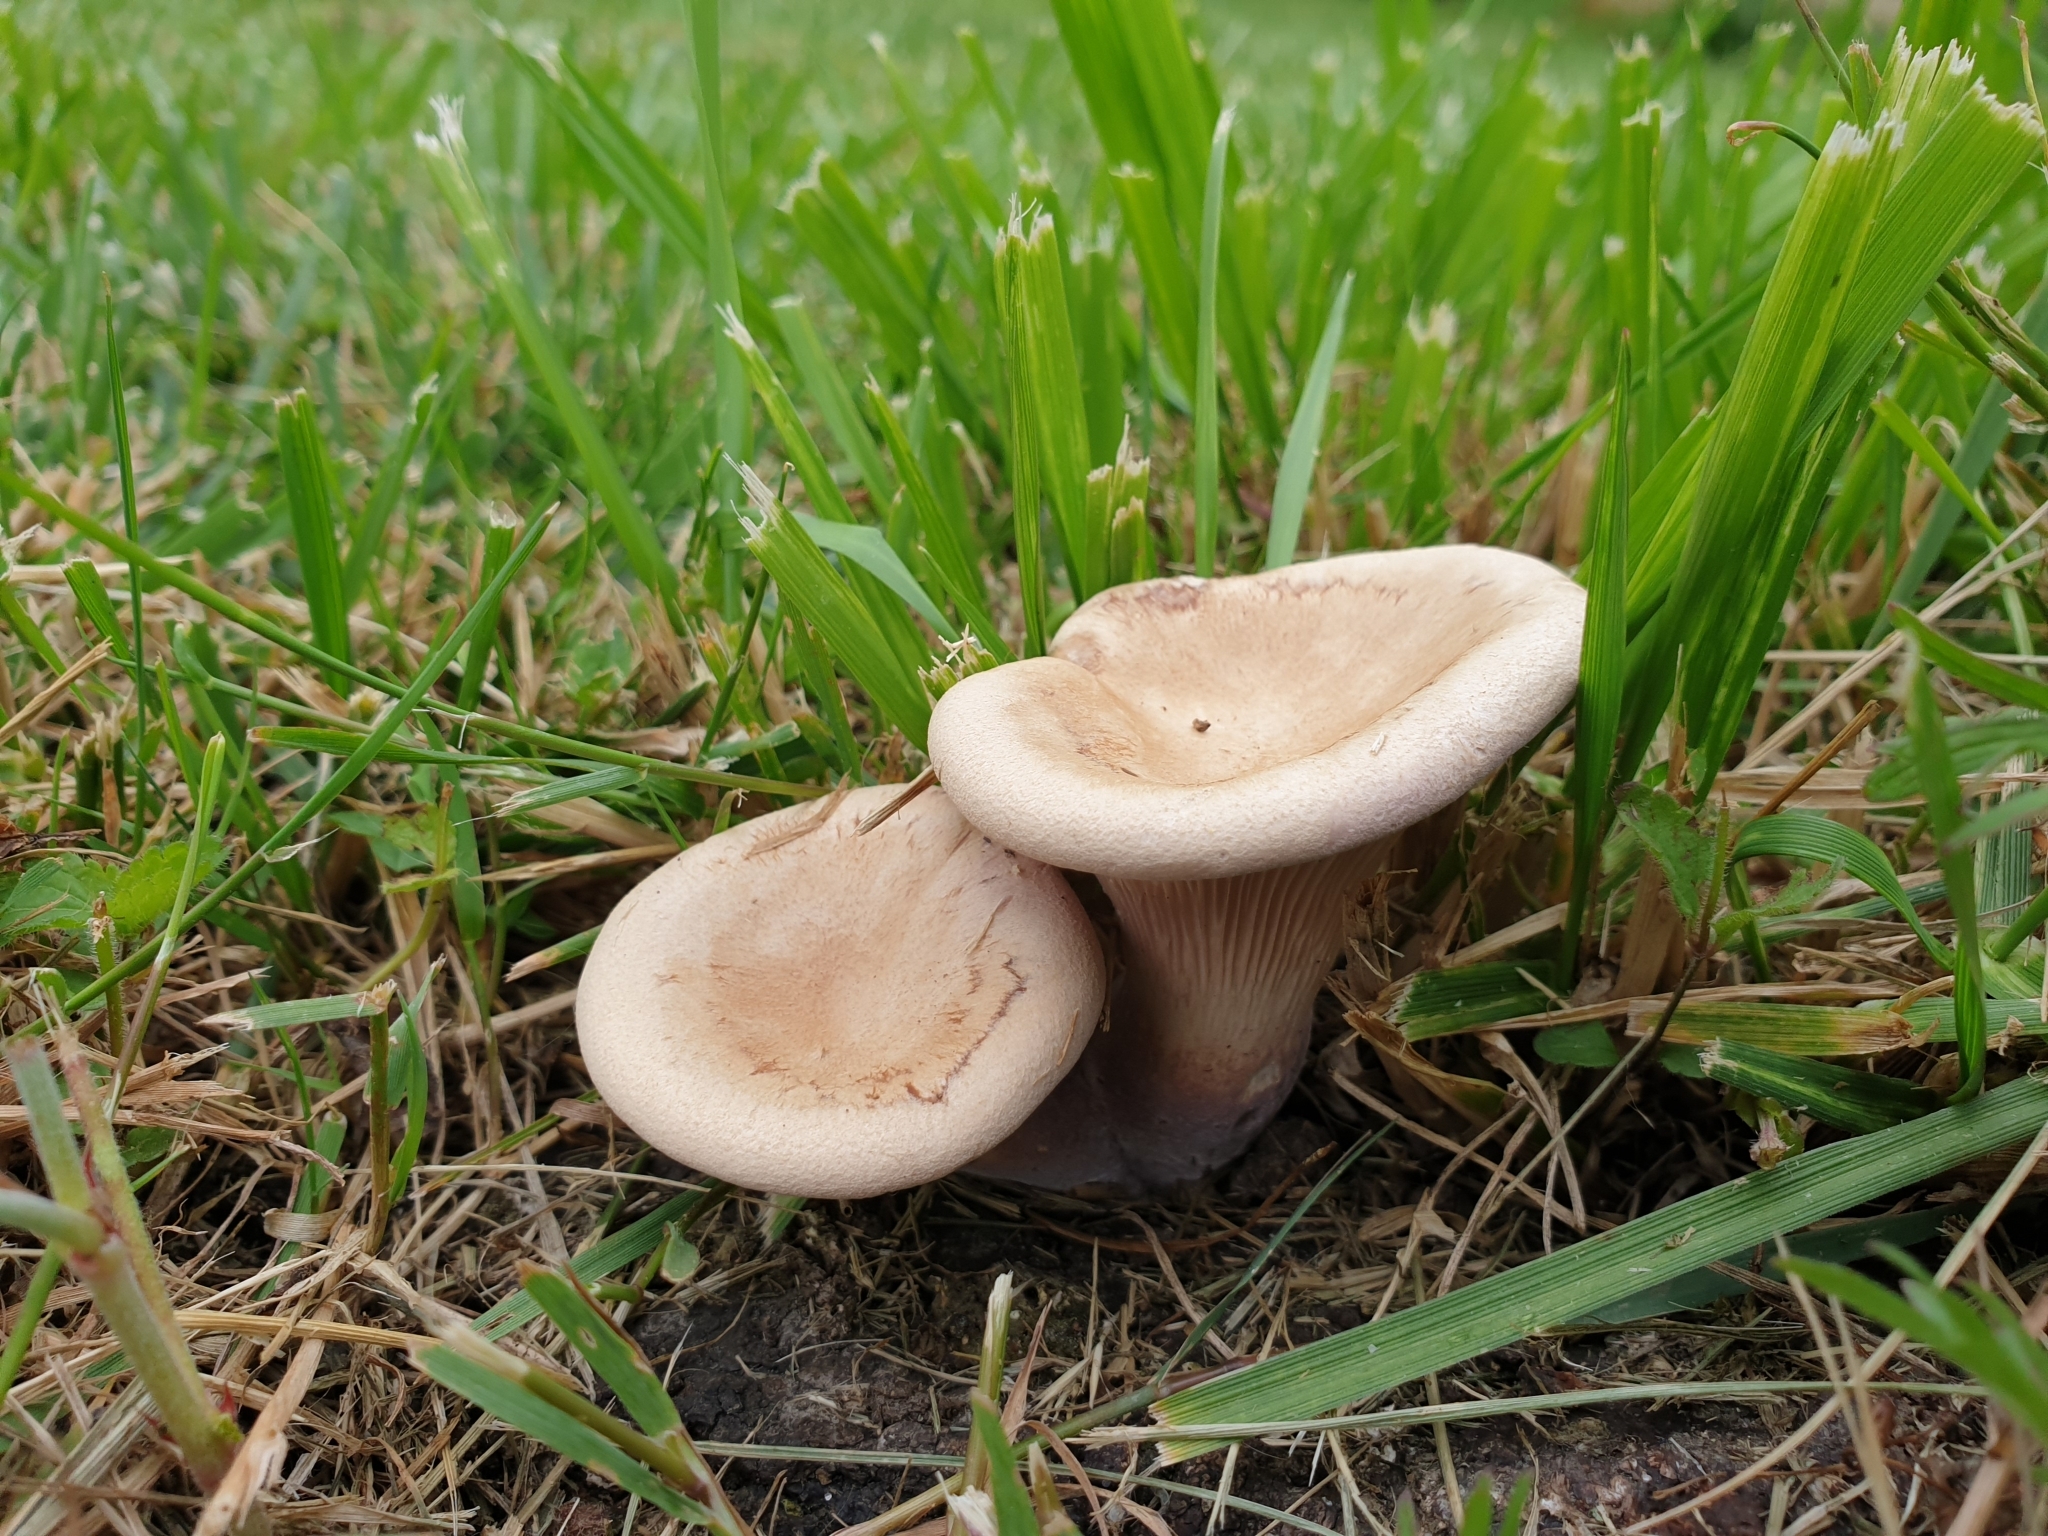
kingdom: Fungi
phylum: Basidiomycota
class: Agaricomycetes
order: Agaricales
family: Tricholomataceae
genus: Infundibulicybe
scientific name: Infundibulicybe gibba
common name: Common funnel
